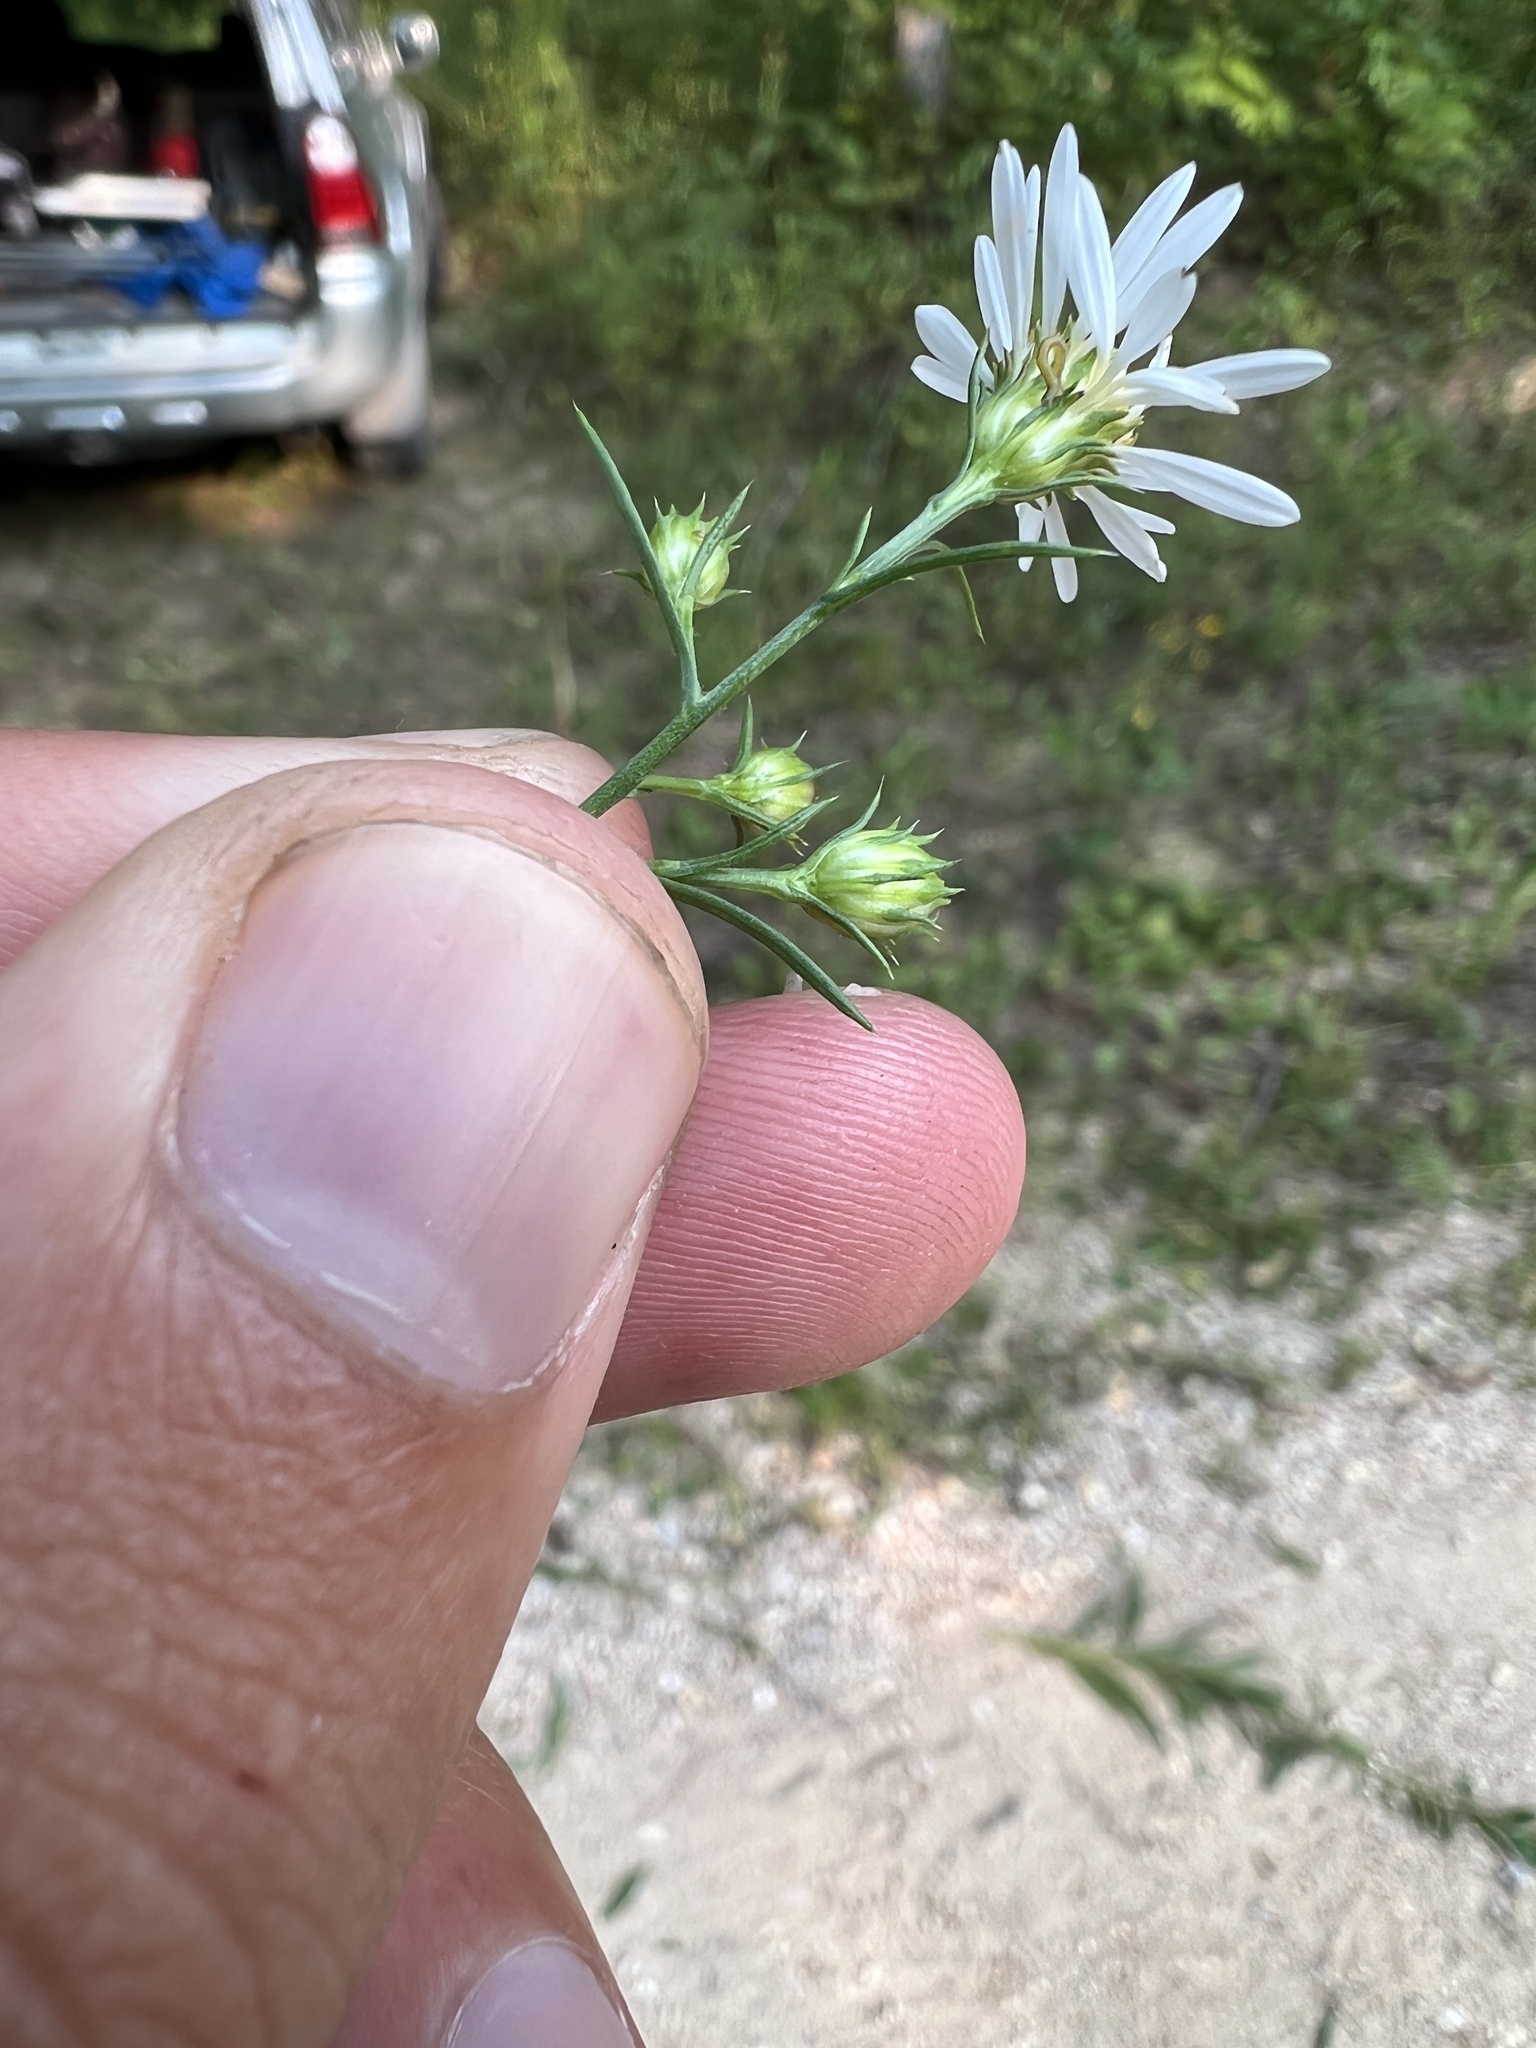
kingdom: Plantae
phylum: Tracheophyta
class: Magnoliopsida
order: Asterales
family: Asteraceae
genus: Symphyotrichum
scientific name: Symphyotrichum pilosum
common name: Awl aster
